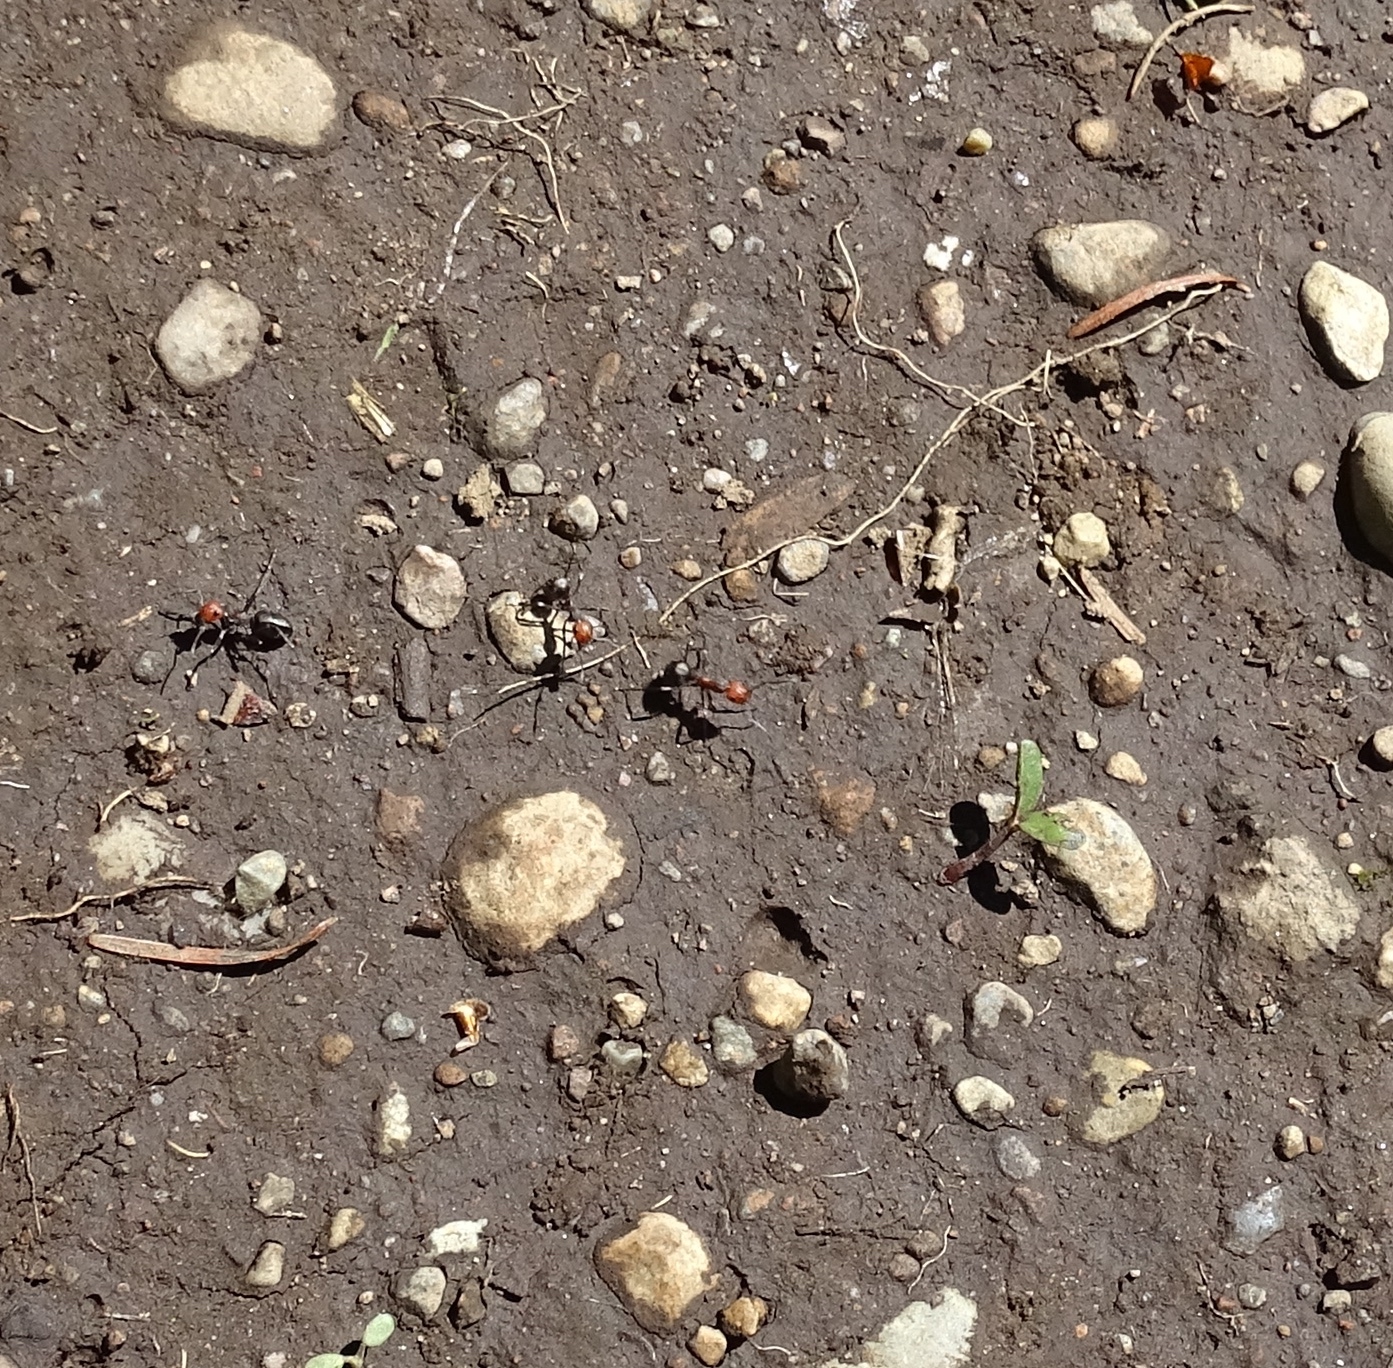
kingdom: Animalia
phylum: Arthropoda
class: Insecta
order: Hymenoptera
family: Formicidae
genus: Formica
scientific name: Formica obscuripes
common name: Western thatching ant
